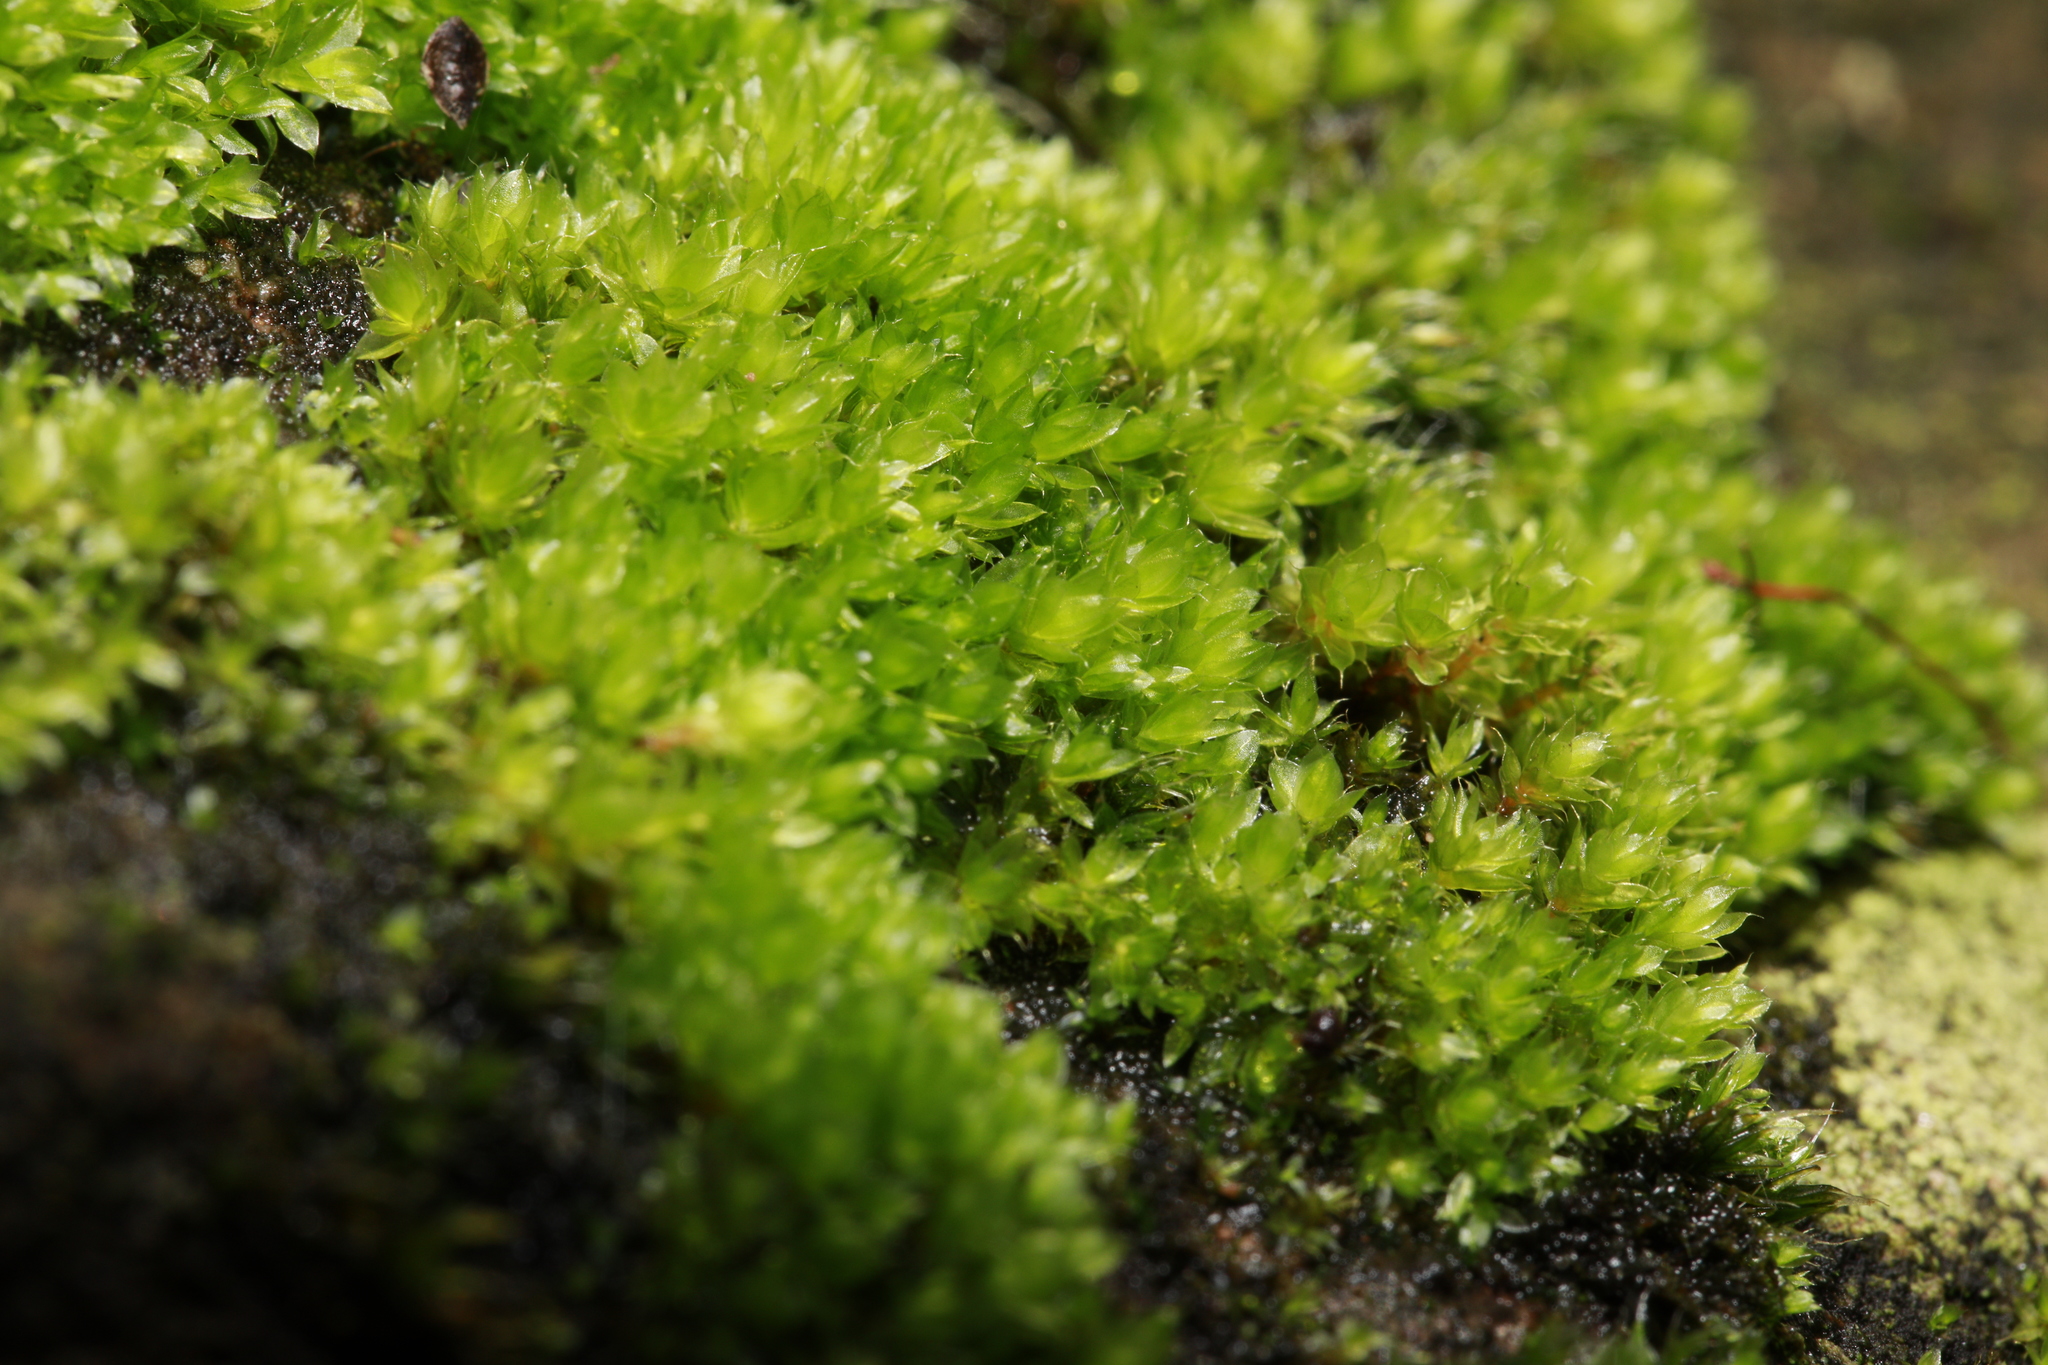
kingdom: Plantae
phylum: Bryophyta
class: Bryopsida
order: Bryales
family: Bryaceae
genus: Rosulabryum
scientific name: Rosulabryum capillare
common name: Capillary thread-moss
